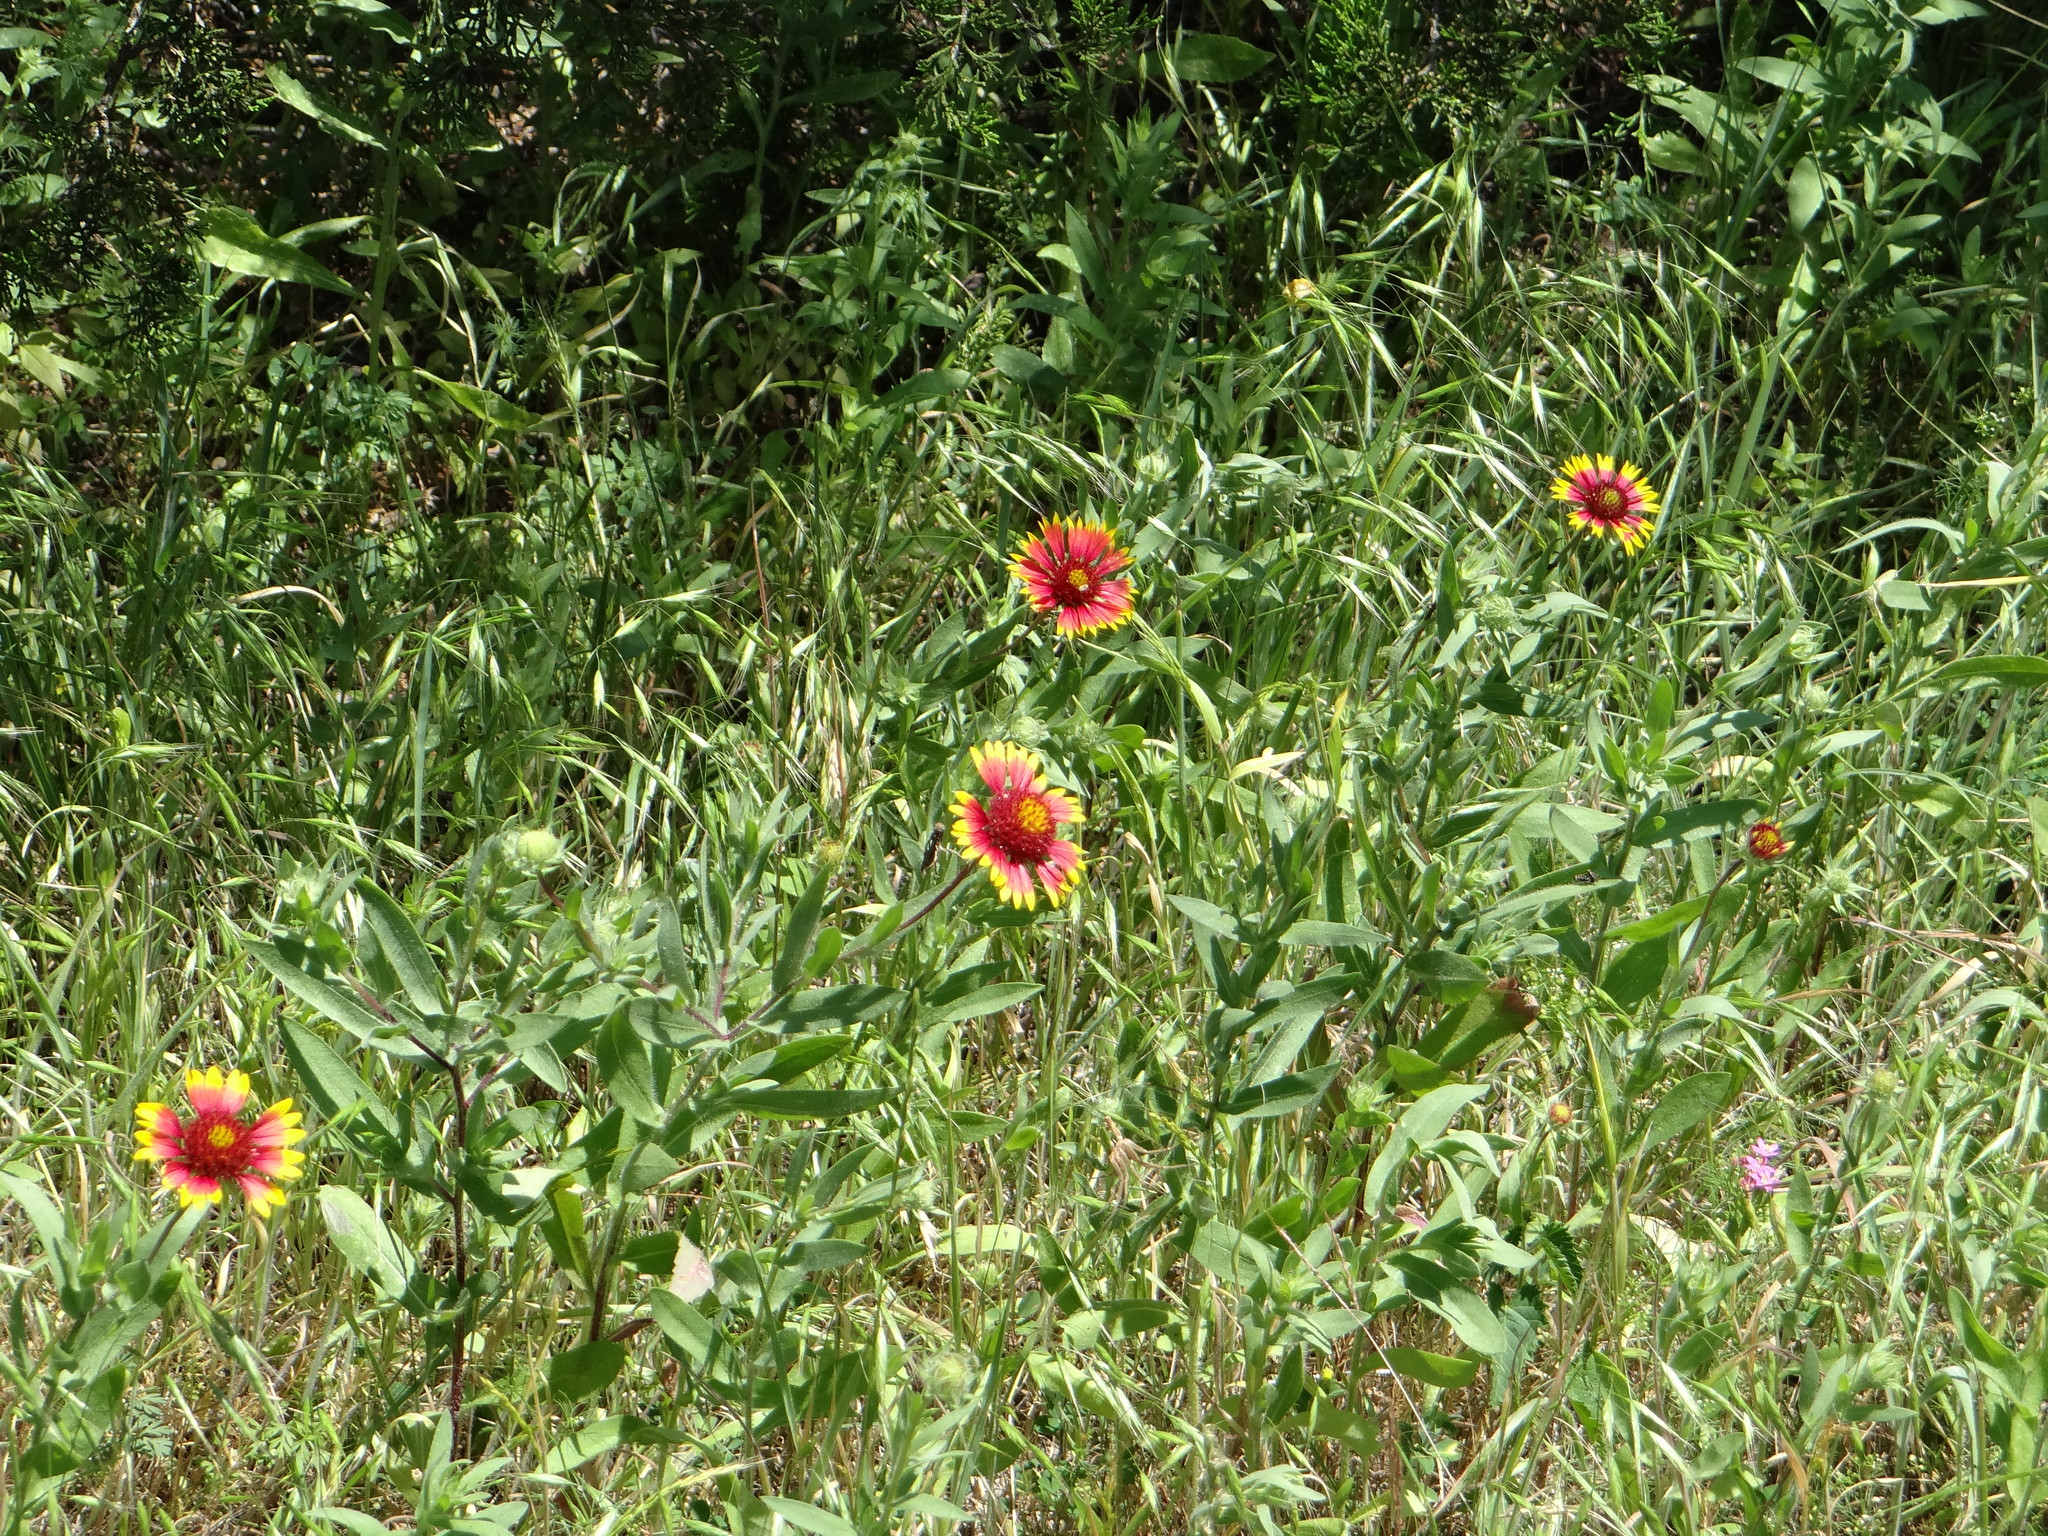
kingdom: Plantae
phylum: Tracheophyta
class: Magnoliopsida
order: Asterales
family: Asteraceae
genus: Gaillardia
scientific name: Gaillardia pulchella
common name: Firewheel
